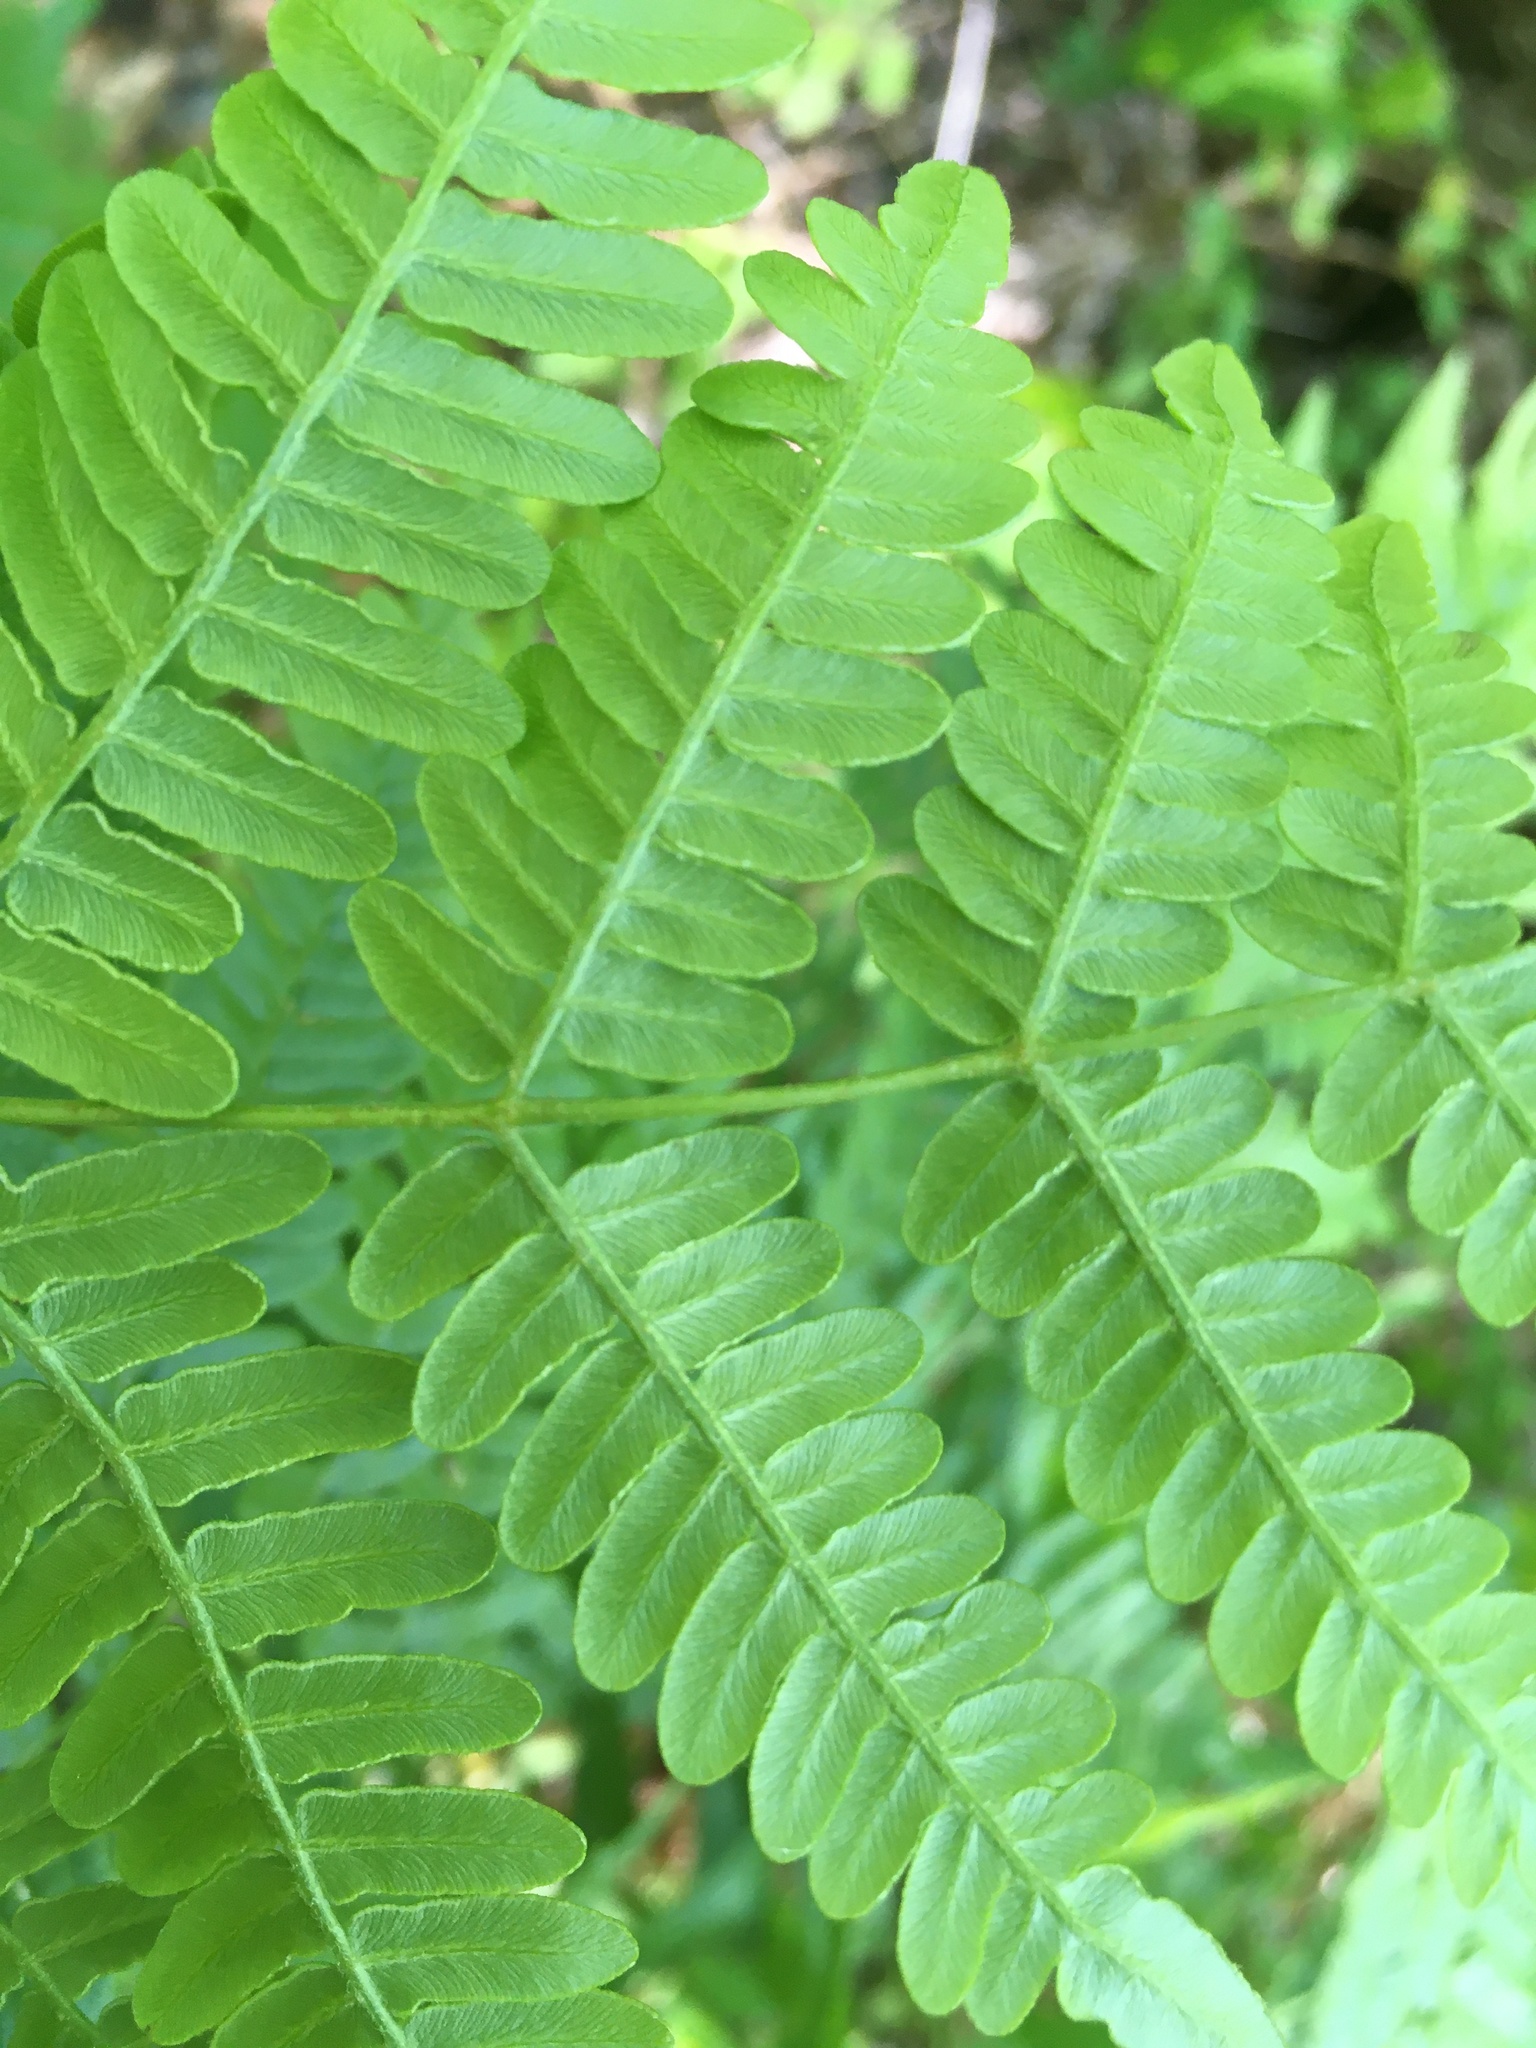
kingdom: Plantae
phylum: Tracheophyta
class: Polypodiopsida
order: Polypodiales
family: Dennstaedtiaceae
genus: Pteridium
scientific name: Pteridium aquilinum
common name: Bracken
